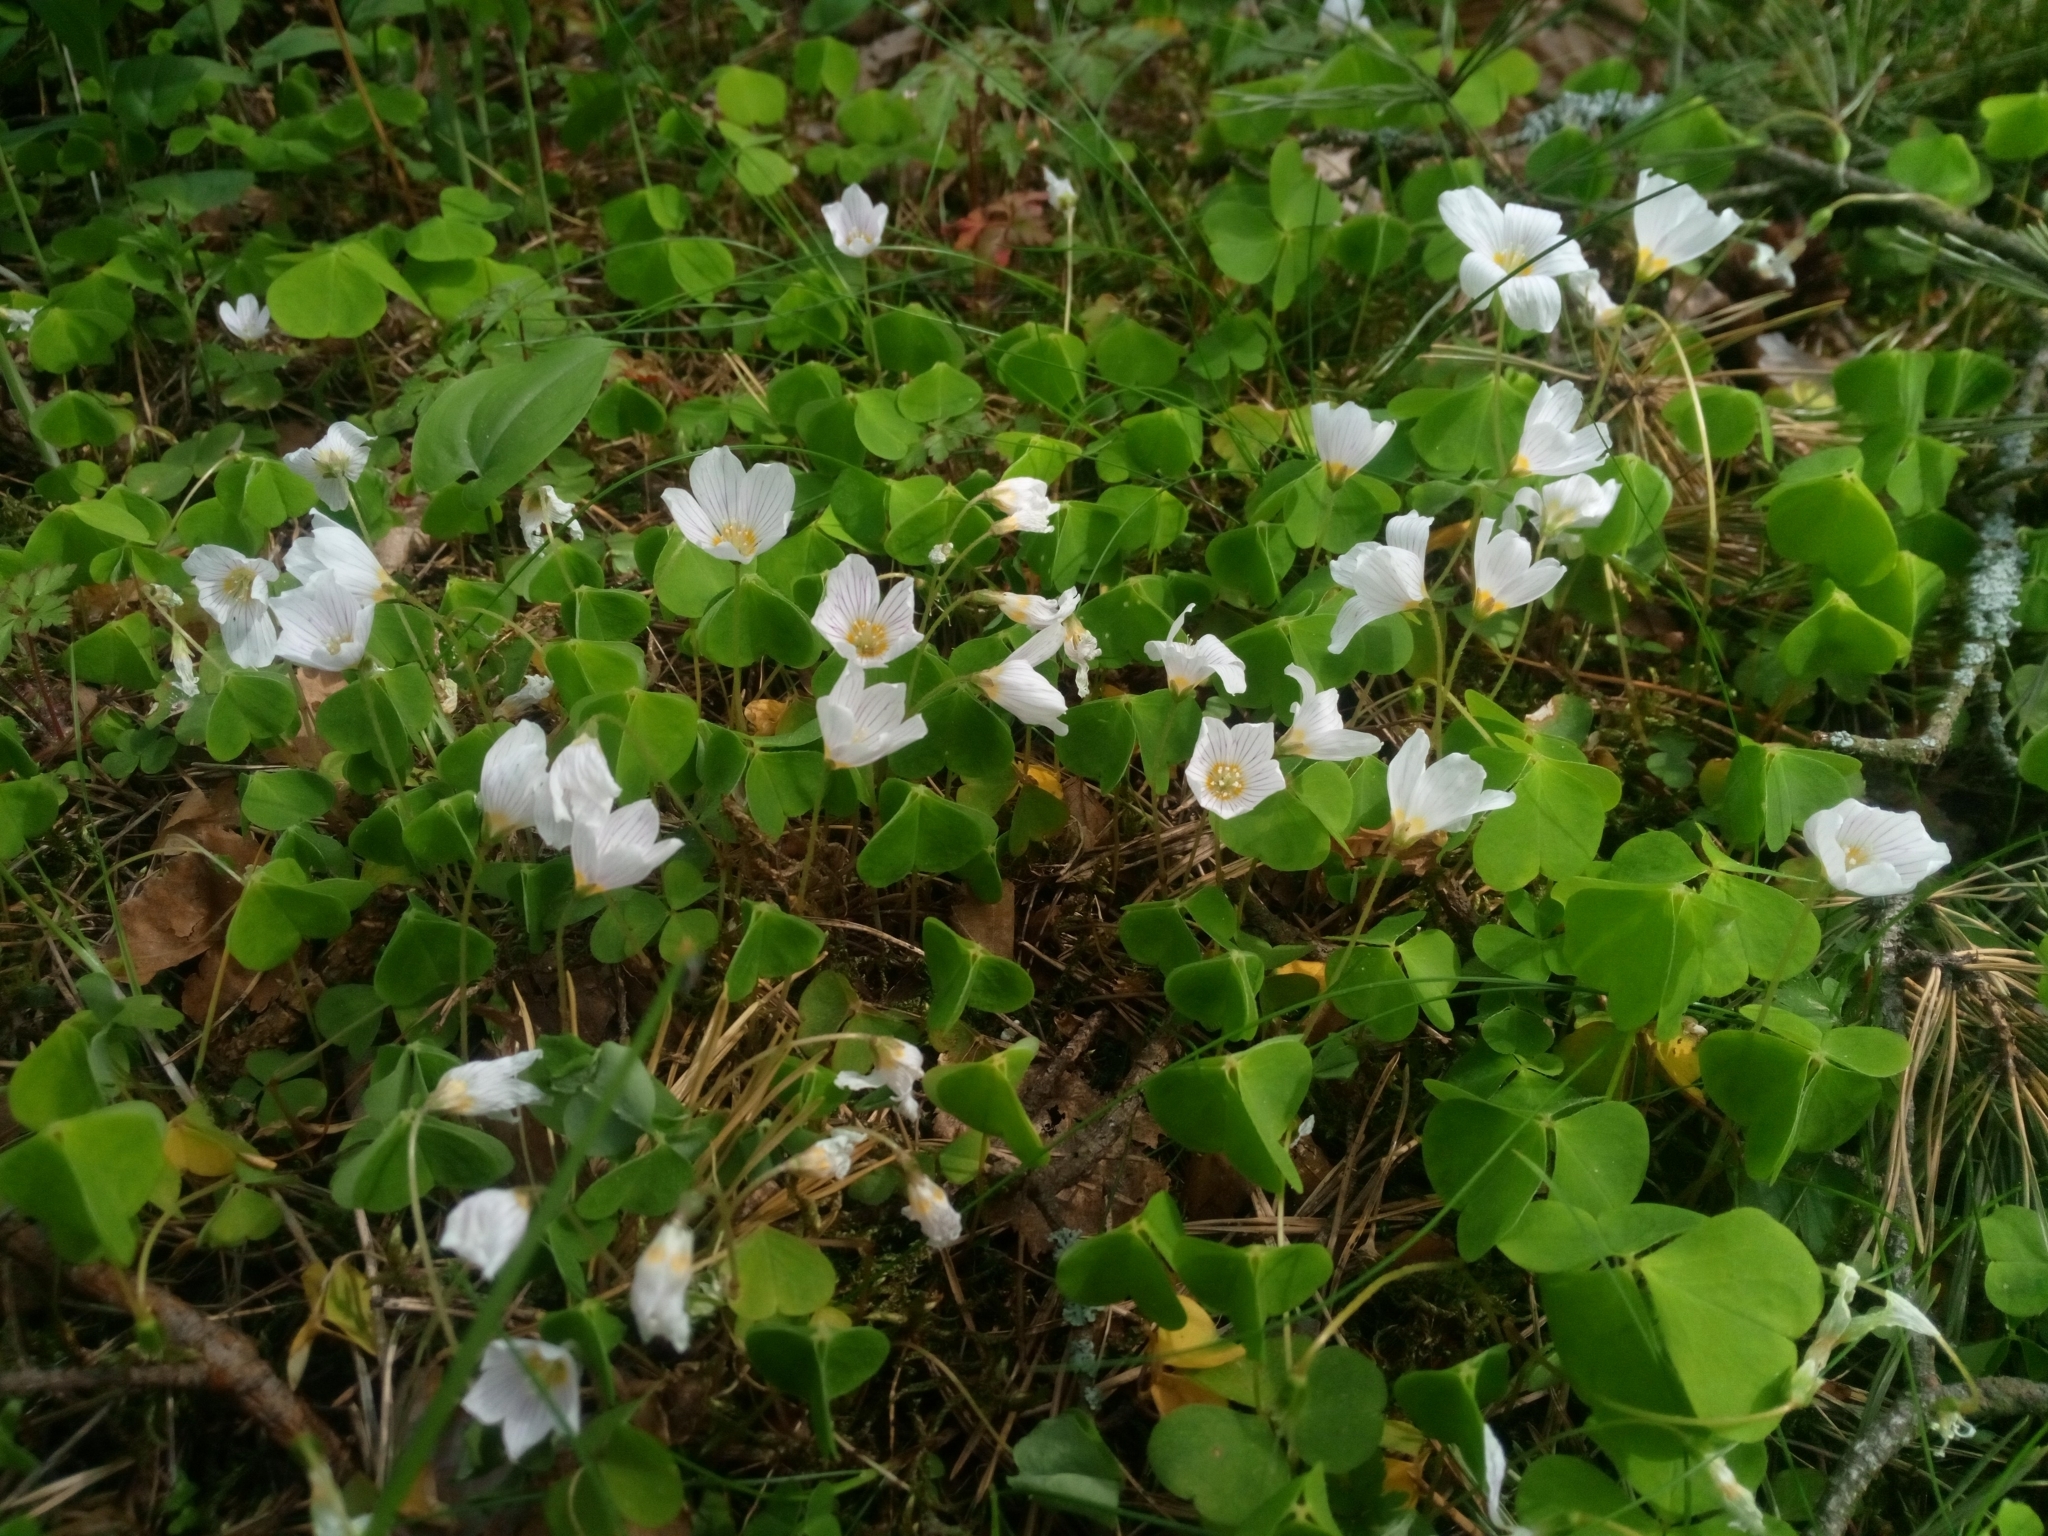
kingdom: Plantae
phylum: Tracheophyta
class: Magnoliopsida
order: Oxalidales
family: Oxalidaceae
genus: Oxalis
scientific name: Oxalis acetosella
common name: Wood-sorrel
